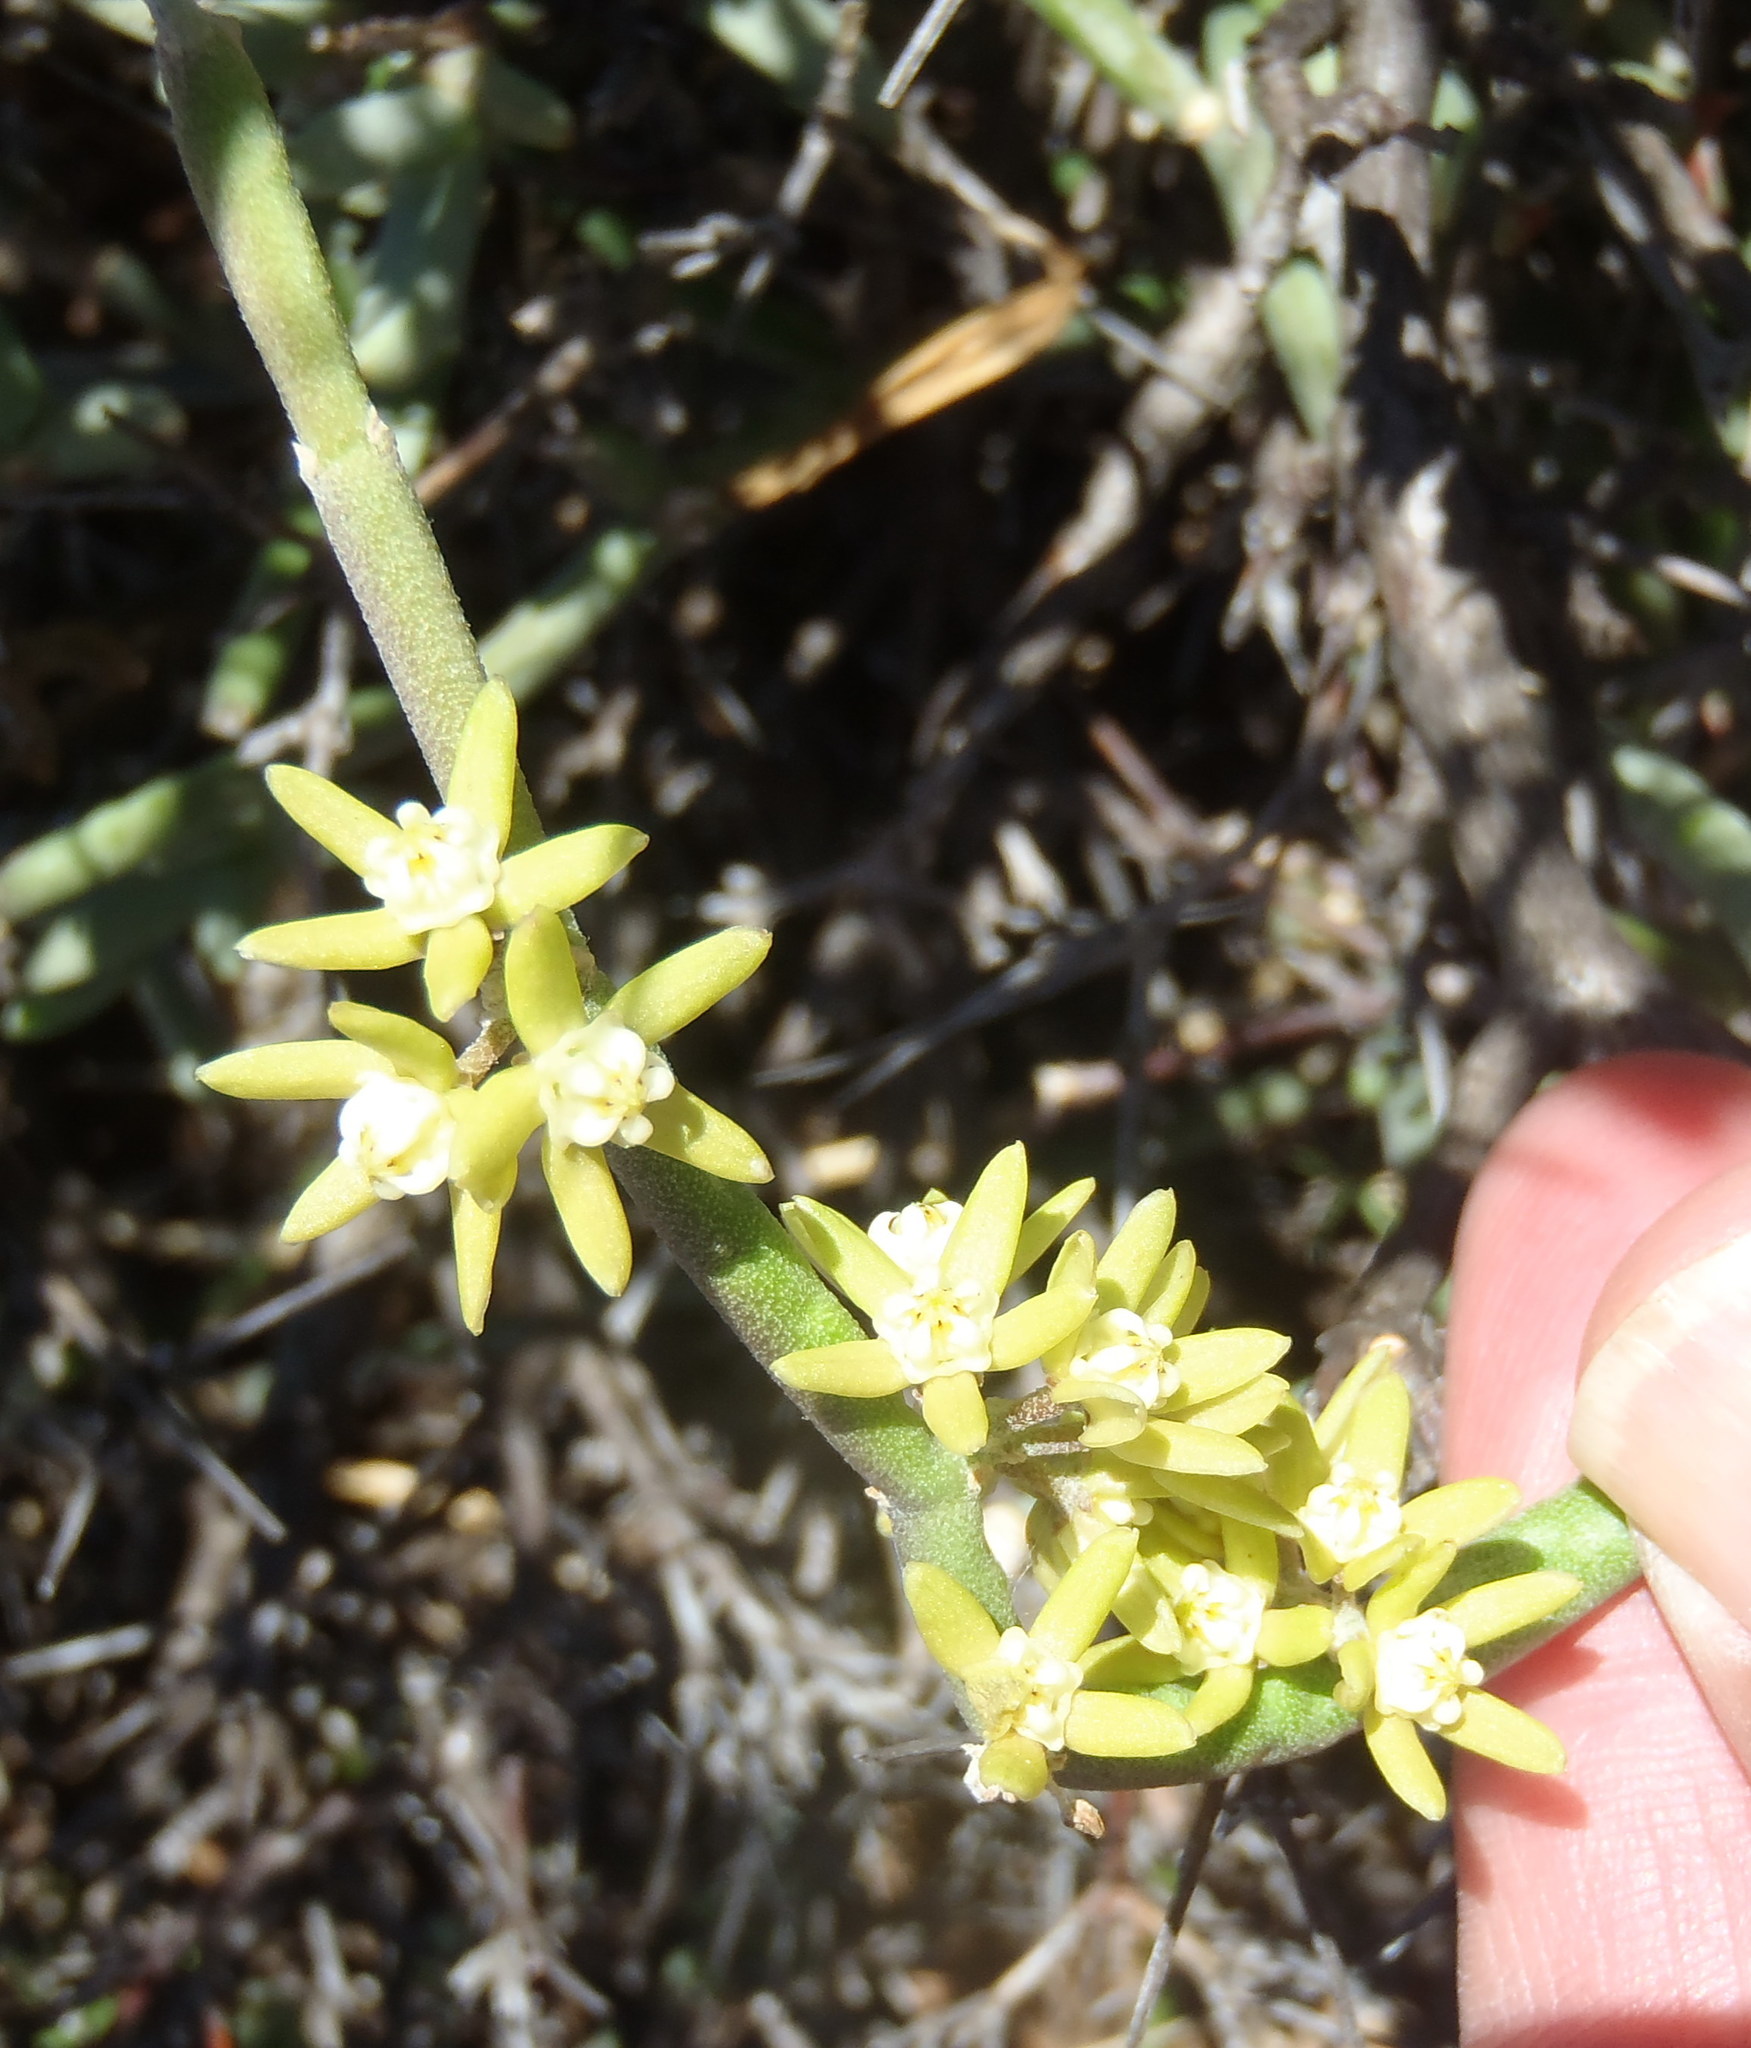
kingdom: Plantae
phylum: Tracheophyta
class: Magnoliopsida
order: Gentianales
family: Apocynaceae
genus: Cynanchum
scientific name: Cynanchum viminale
